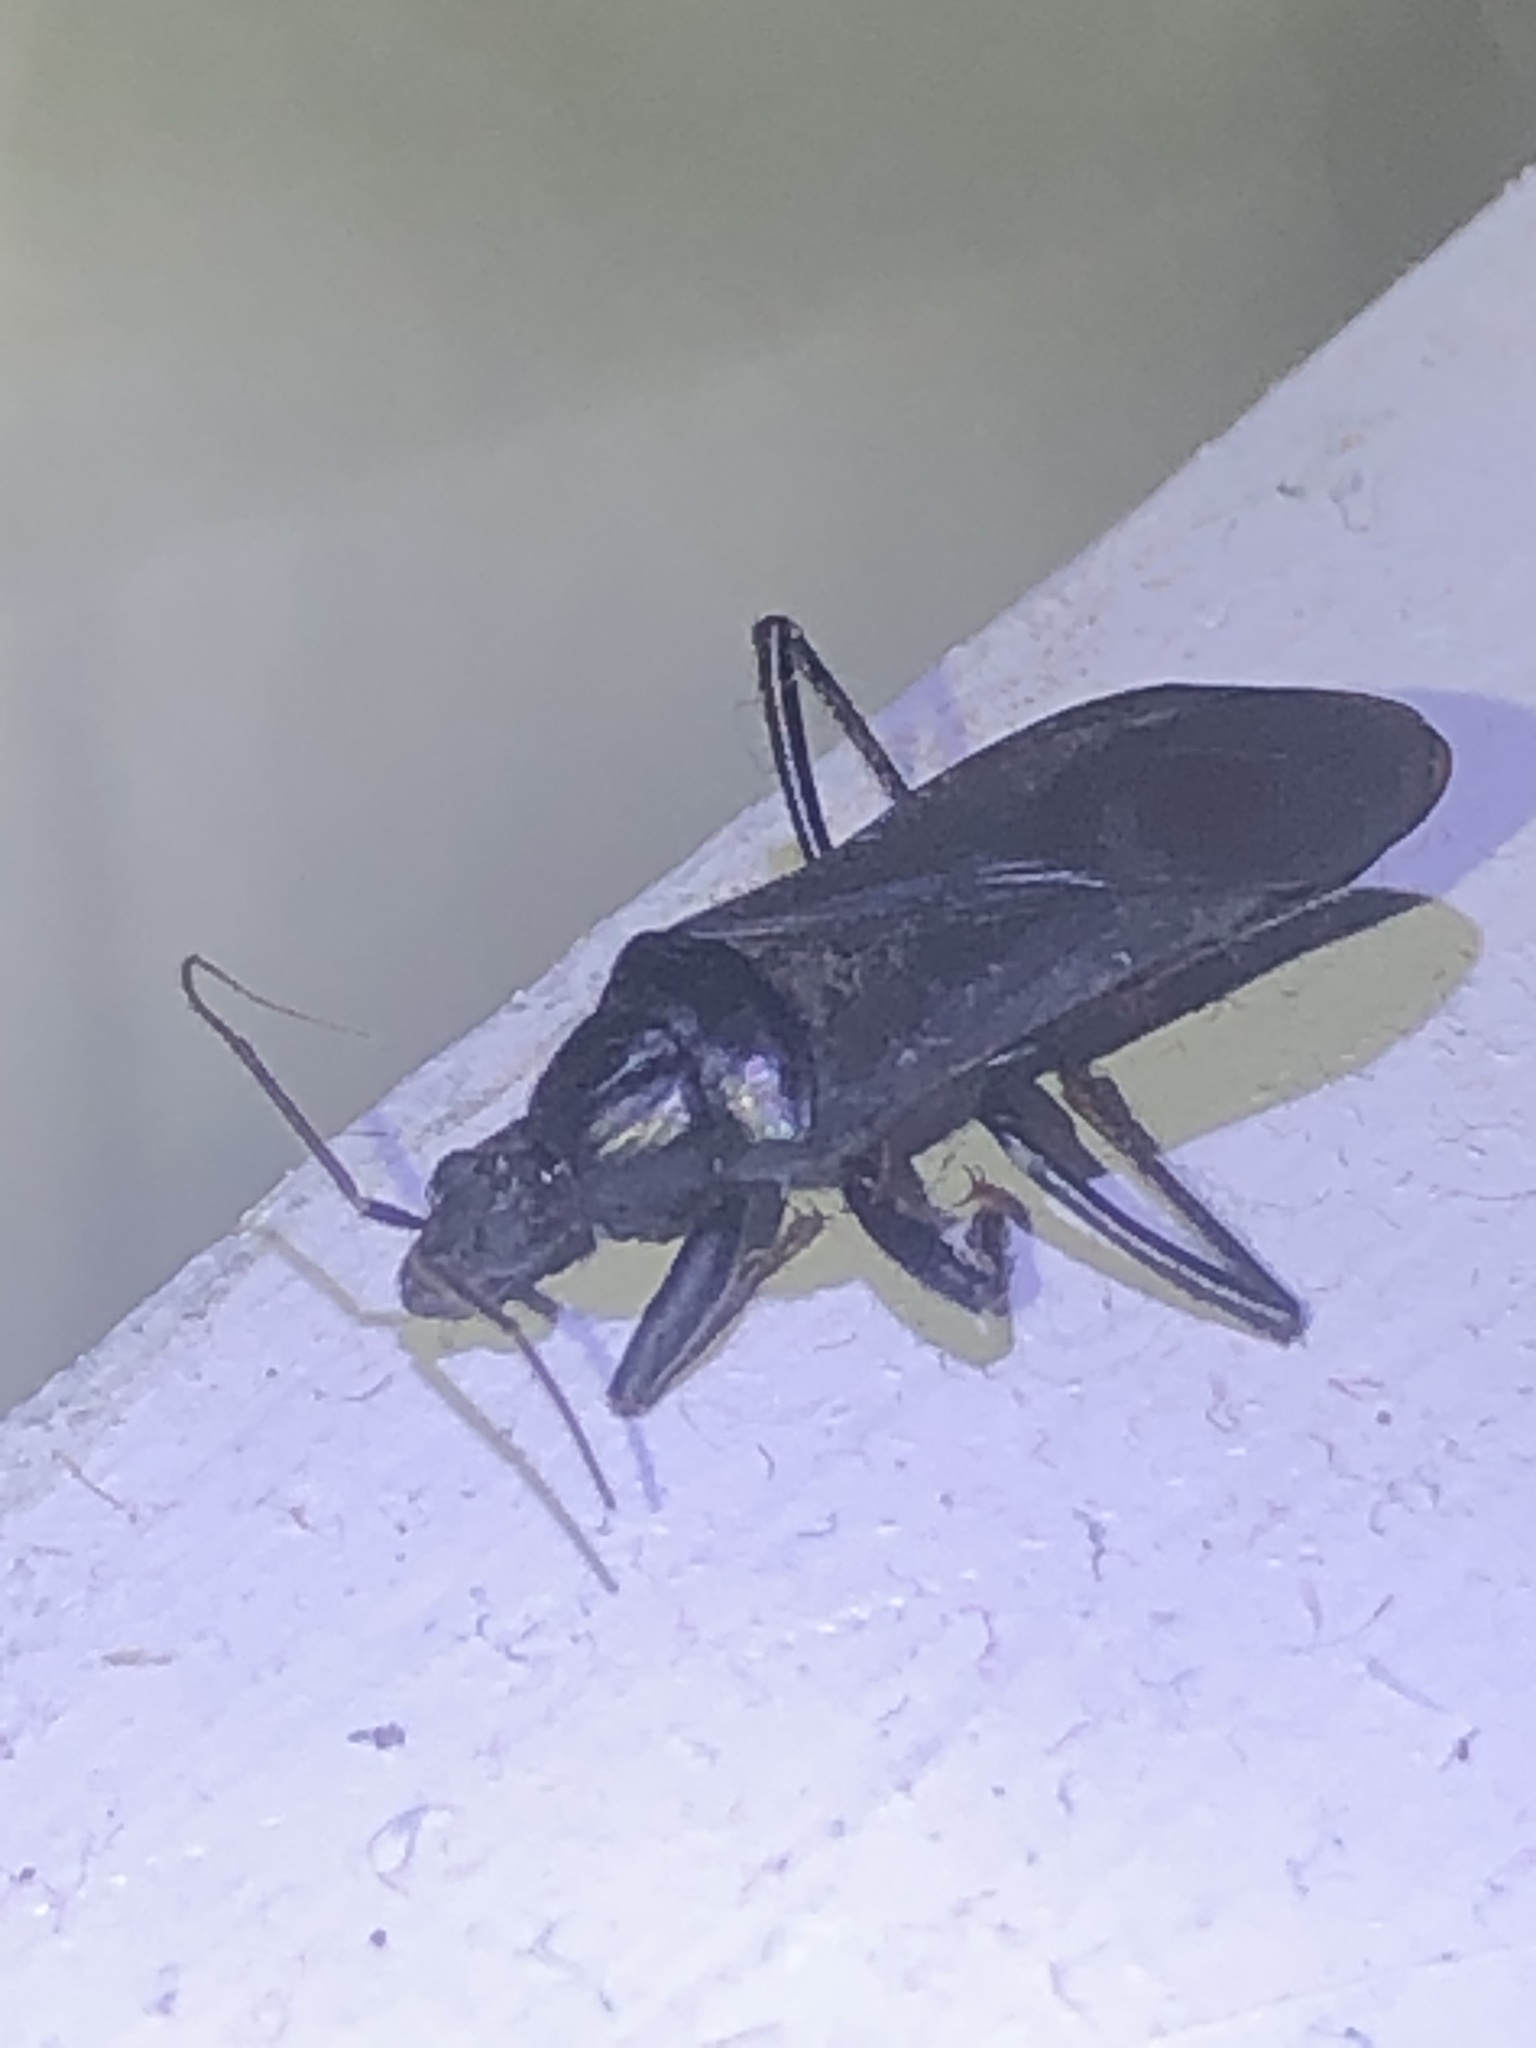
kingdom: Animalia
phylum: Arthropoda
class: Insecta
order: Hemiptera
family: Reduviidae
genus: Melanolestes
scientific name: Melanolestes picipes
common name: Assassin bug
